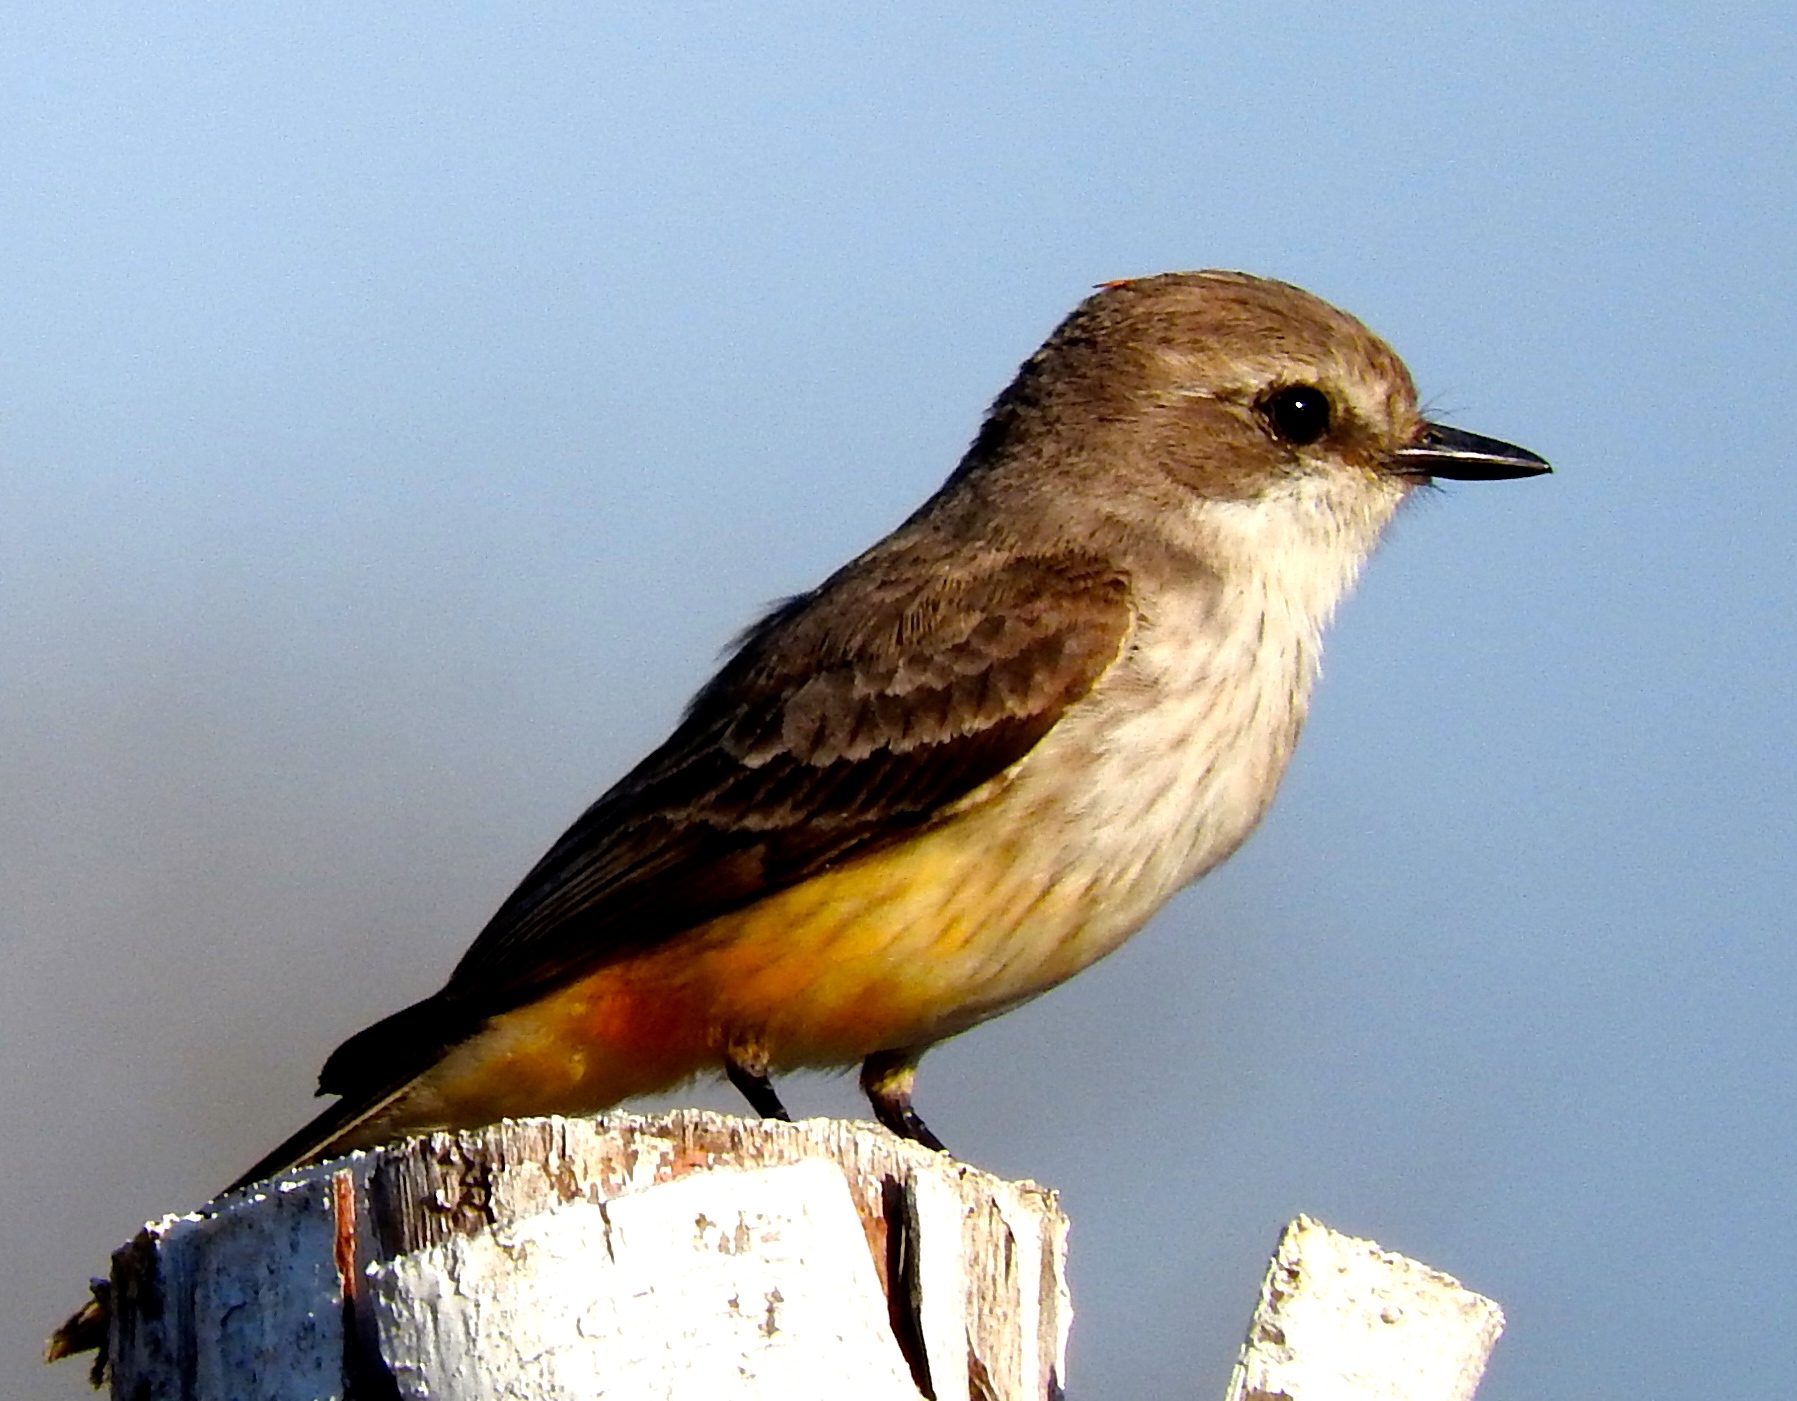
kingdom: Animalia
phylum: Chordata
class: Aves
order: Passeriformes
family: Tyrannidae
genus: Pyrocephalus
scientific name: Pyrocephalus rubinus
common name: Vermilion flycatcher
